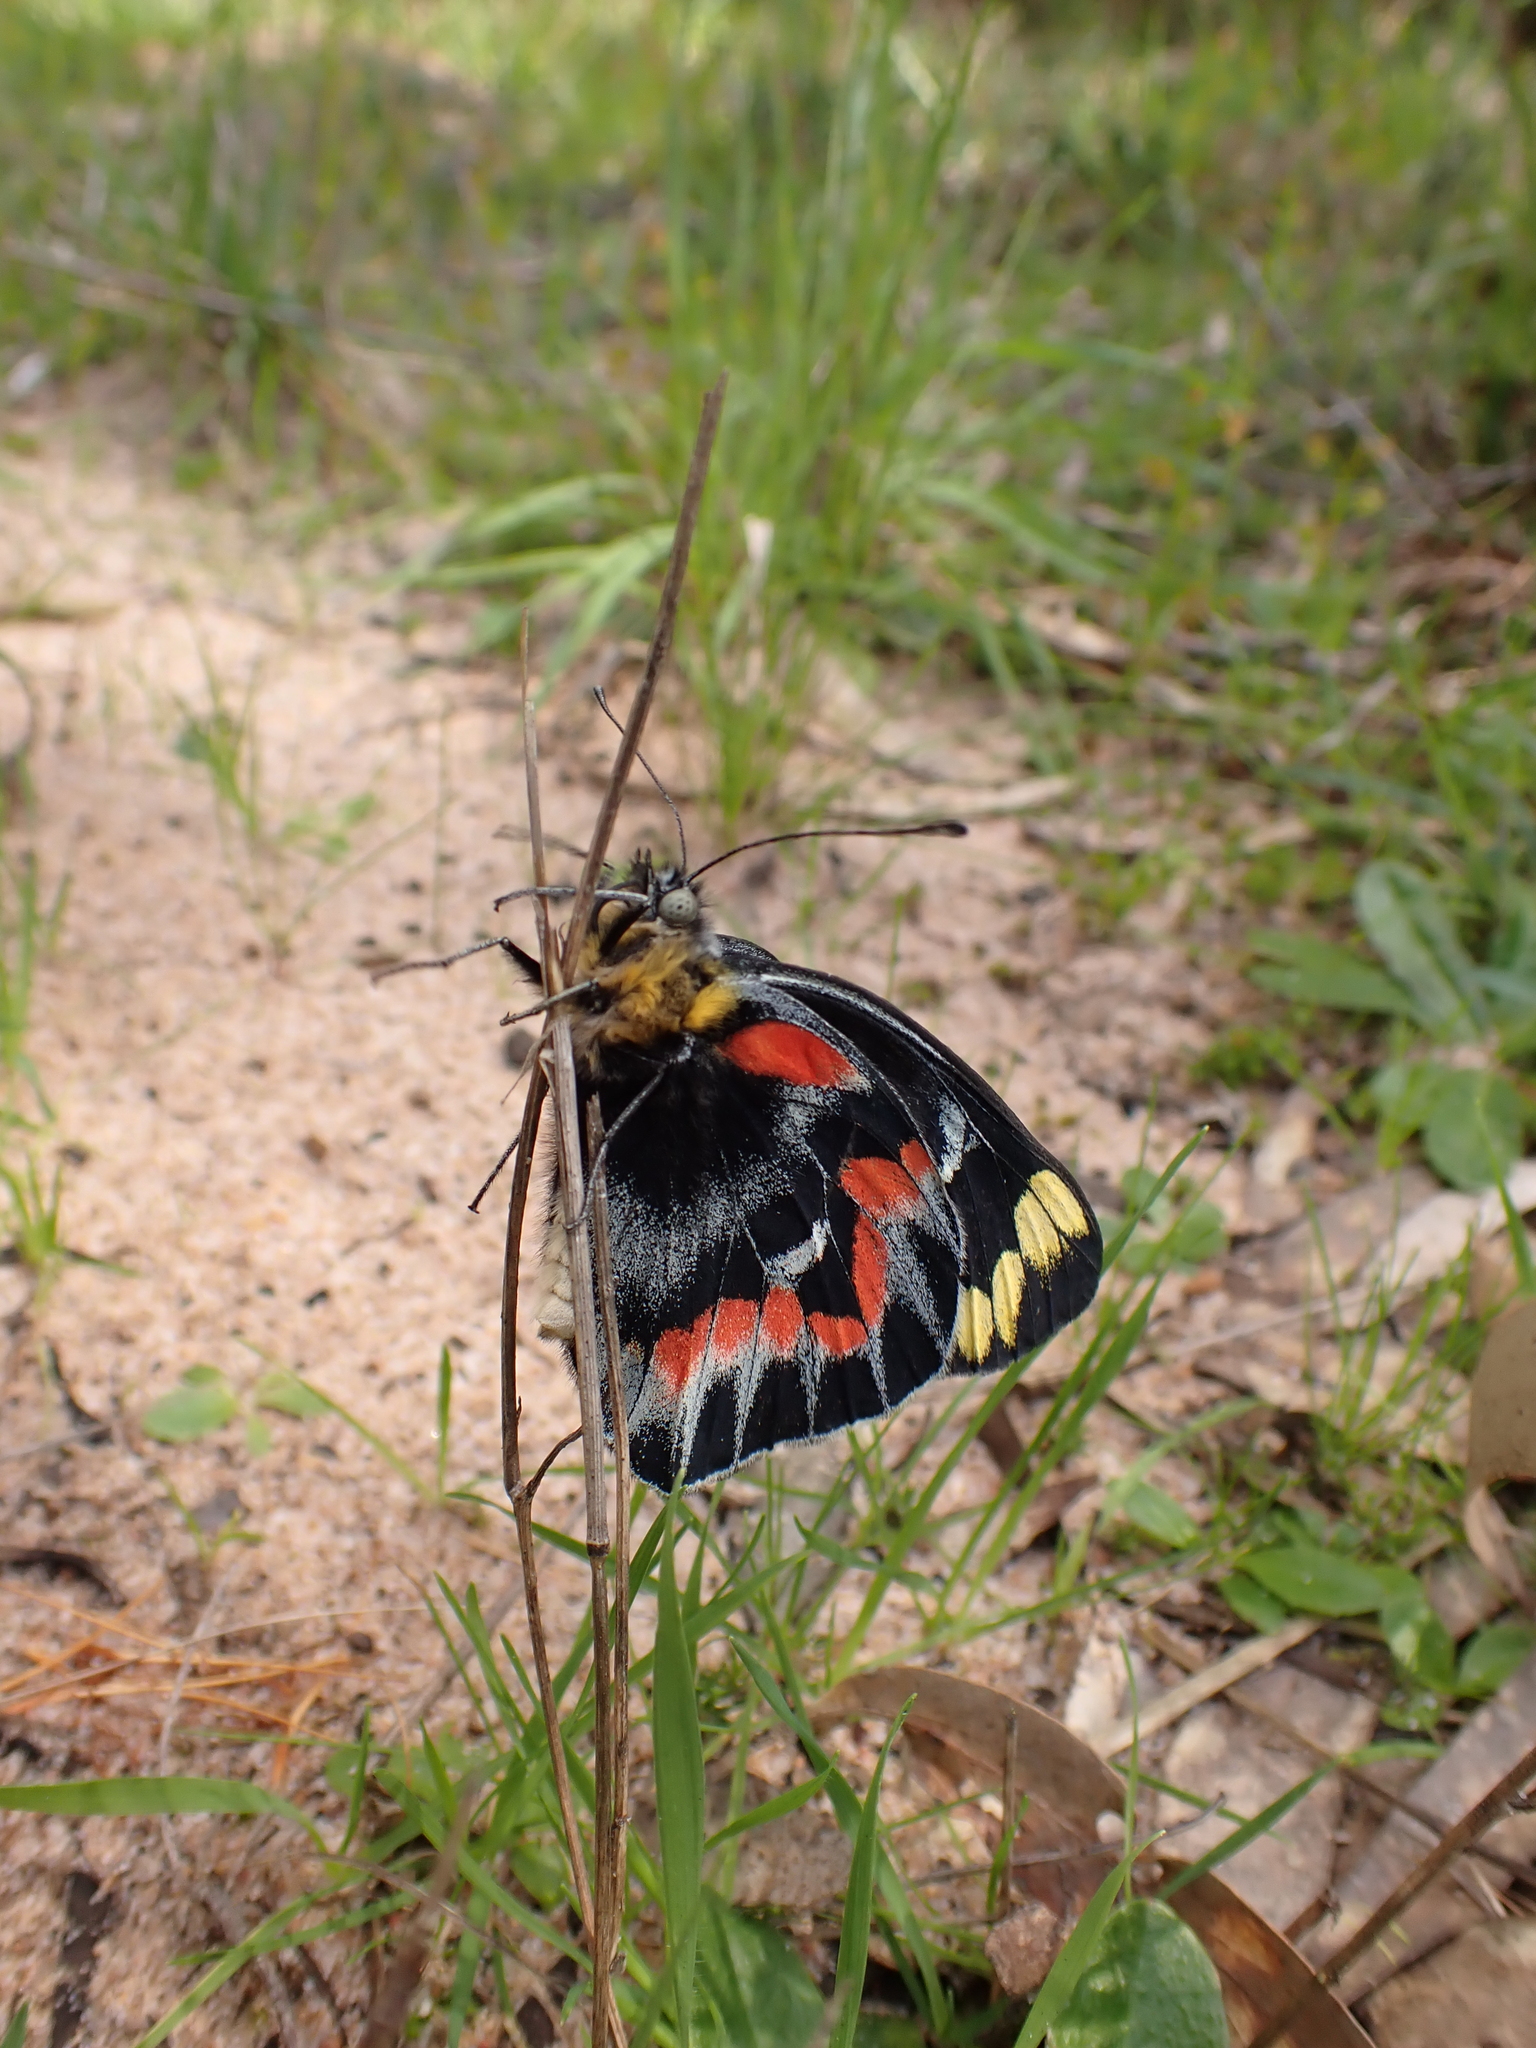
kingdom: Animalia
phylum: Arthropoda
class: Insecta
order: Lepidoptera
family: Pieridae
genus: Delias
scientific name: Delias harpalyce
